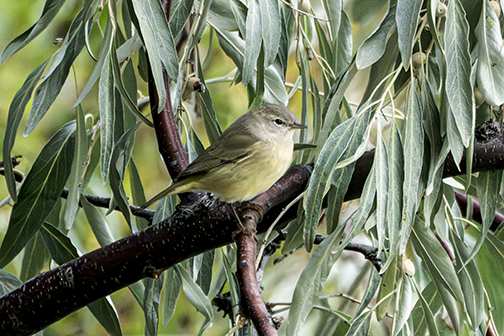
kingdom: Animalia
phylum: Chordata
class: Aves
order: Passeriformes
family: Parulidae
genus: Leiothlypis
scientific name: Leiothlypis celata
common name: Orange-crowned warbler
